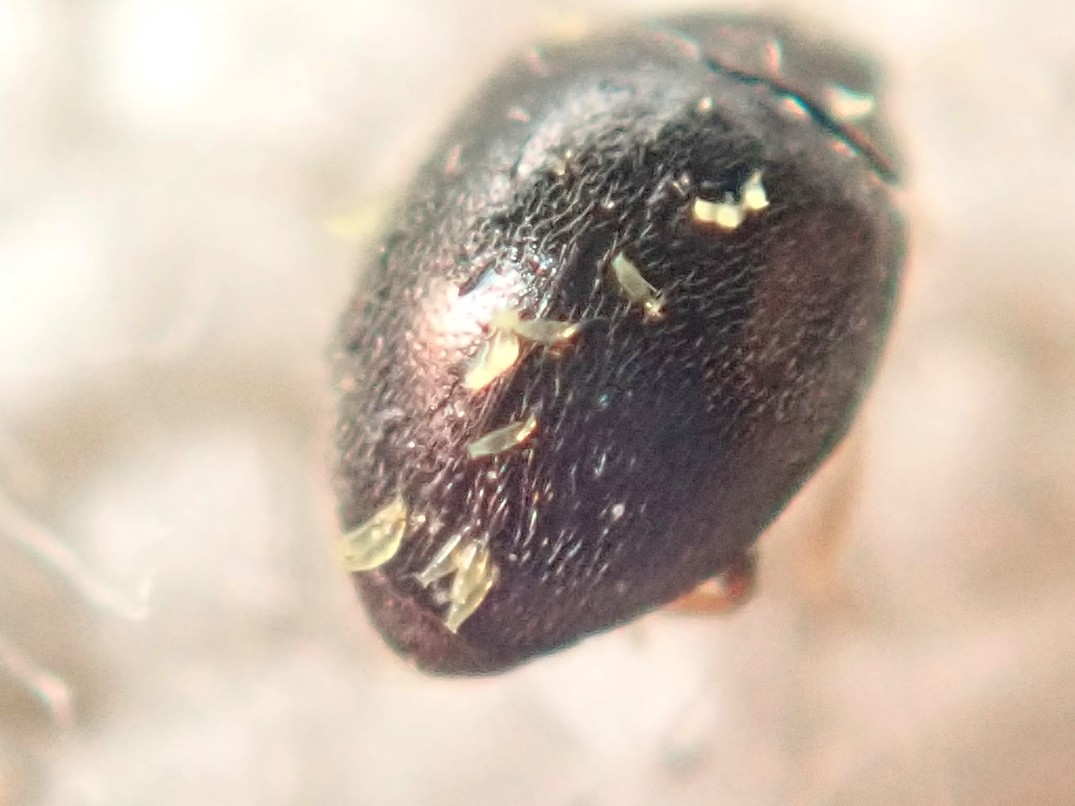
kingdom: Fungi
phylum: Ascomycota
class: Laboulbeniomycetes
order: Laboulbeniales
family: Laboulbeniaceae
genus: Hesperomyces
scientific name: Hesperomyces coccinelloides
